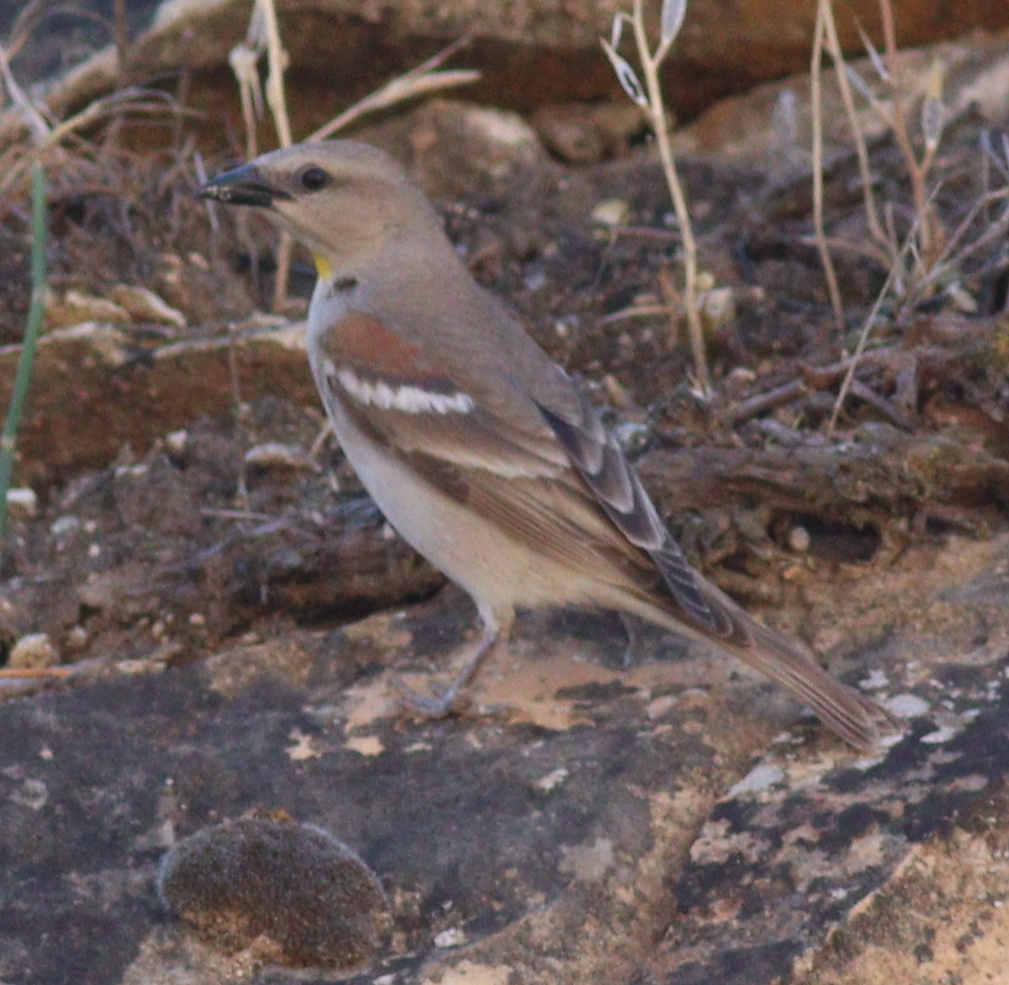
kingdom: Animalia
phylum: Chordata
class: Aves
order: Passeriformes
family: Passeridae
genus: Gymnoris
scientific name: Gymnoris xanthocollis
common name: Yellow-throated sparrow
